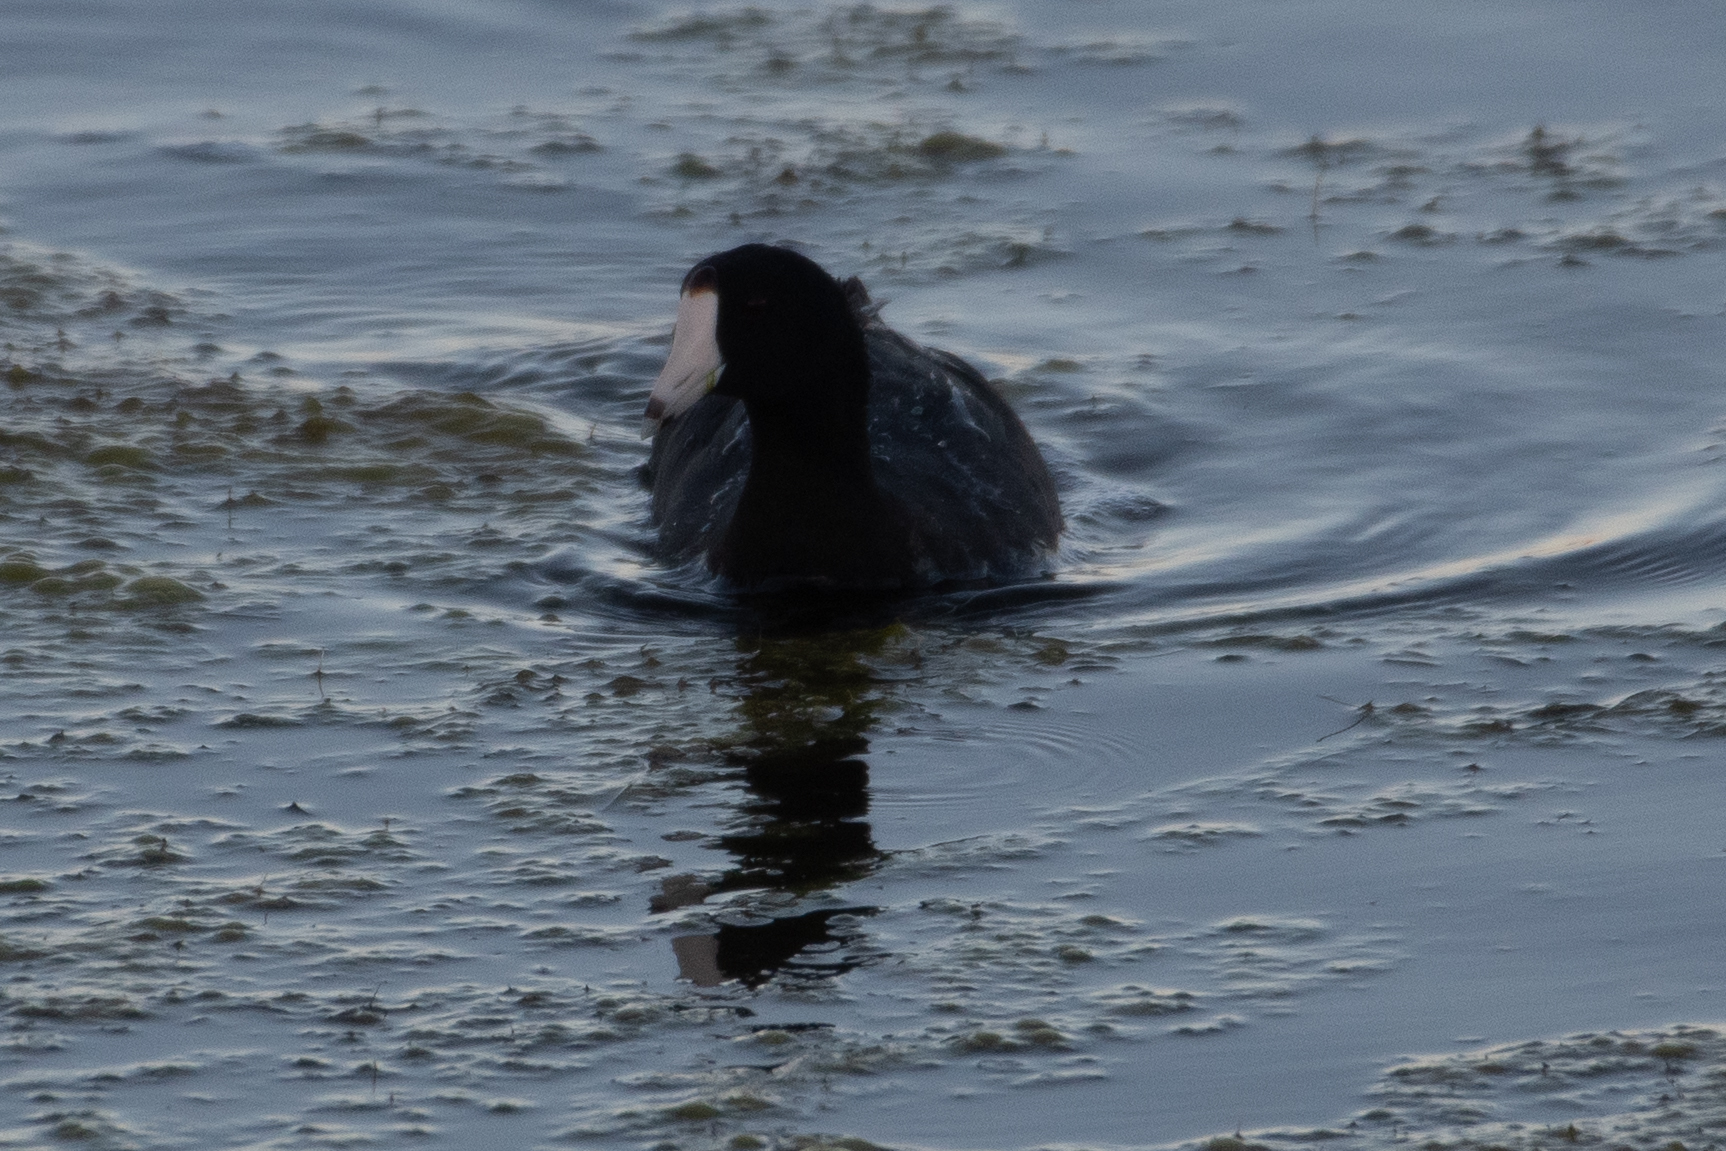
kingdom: Animalia
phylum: Chordata
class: Aves
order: Gruiformes
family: Rallidae
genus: Fulica
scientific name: Fulica americana
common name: American coot
